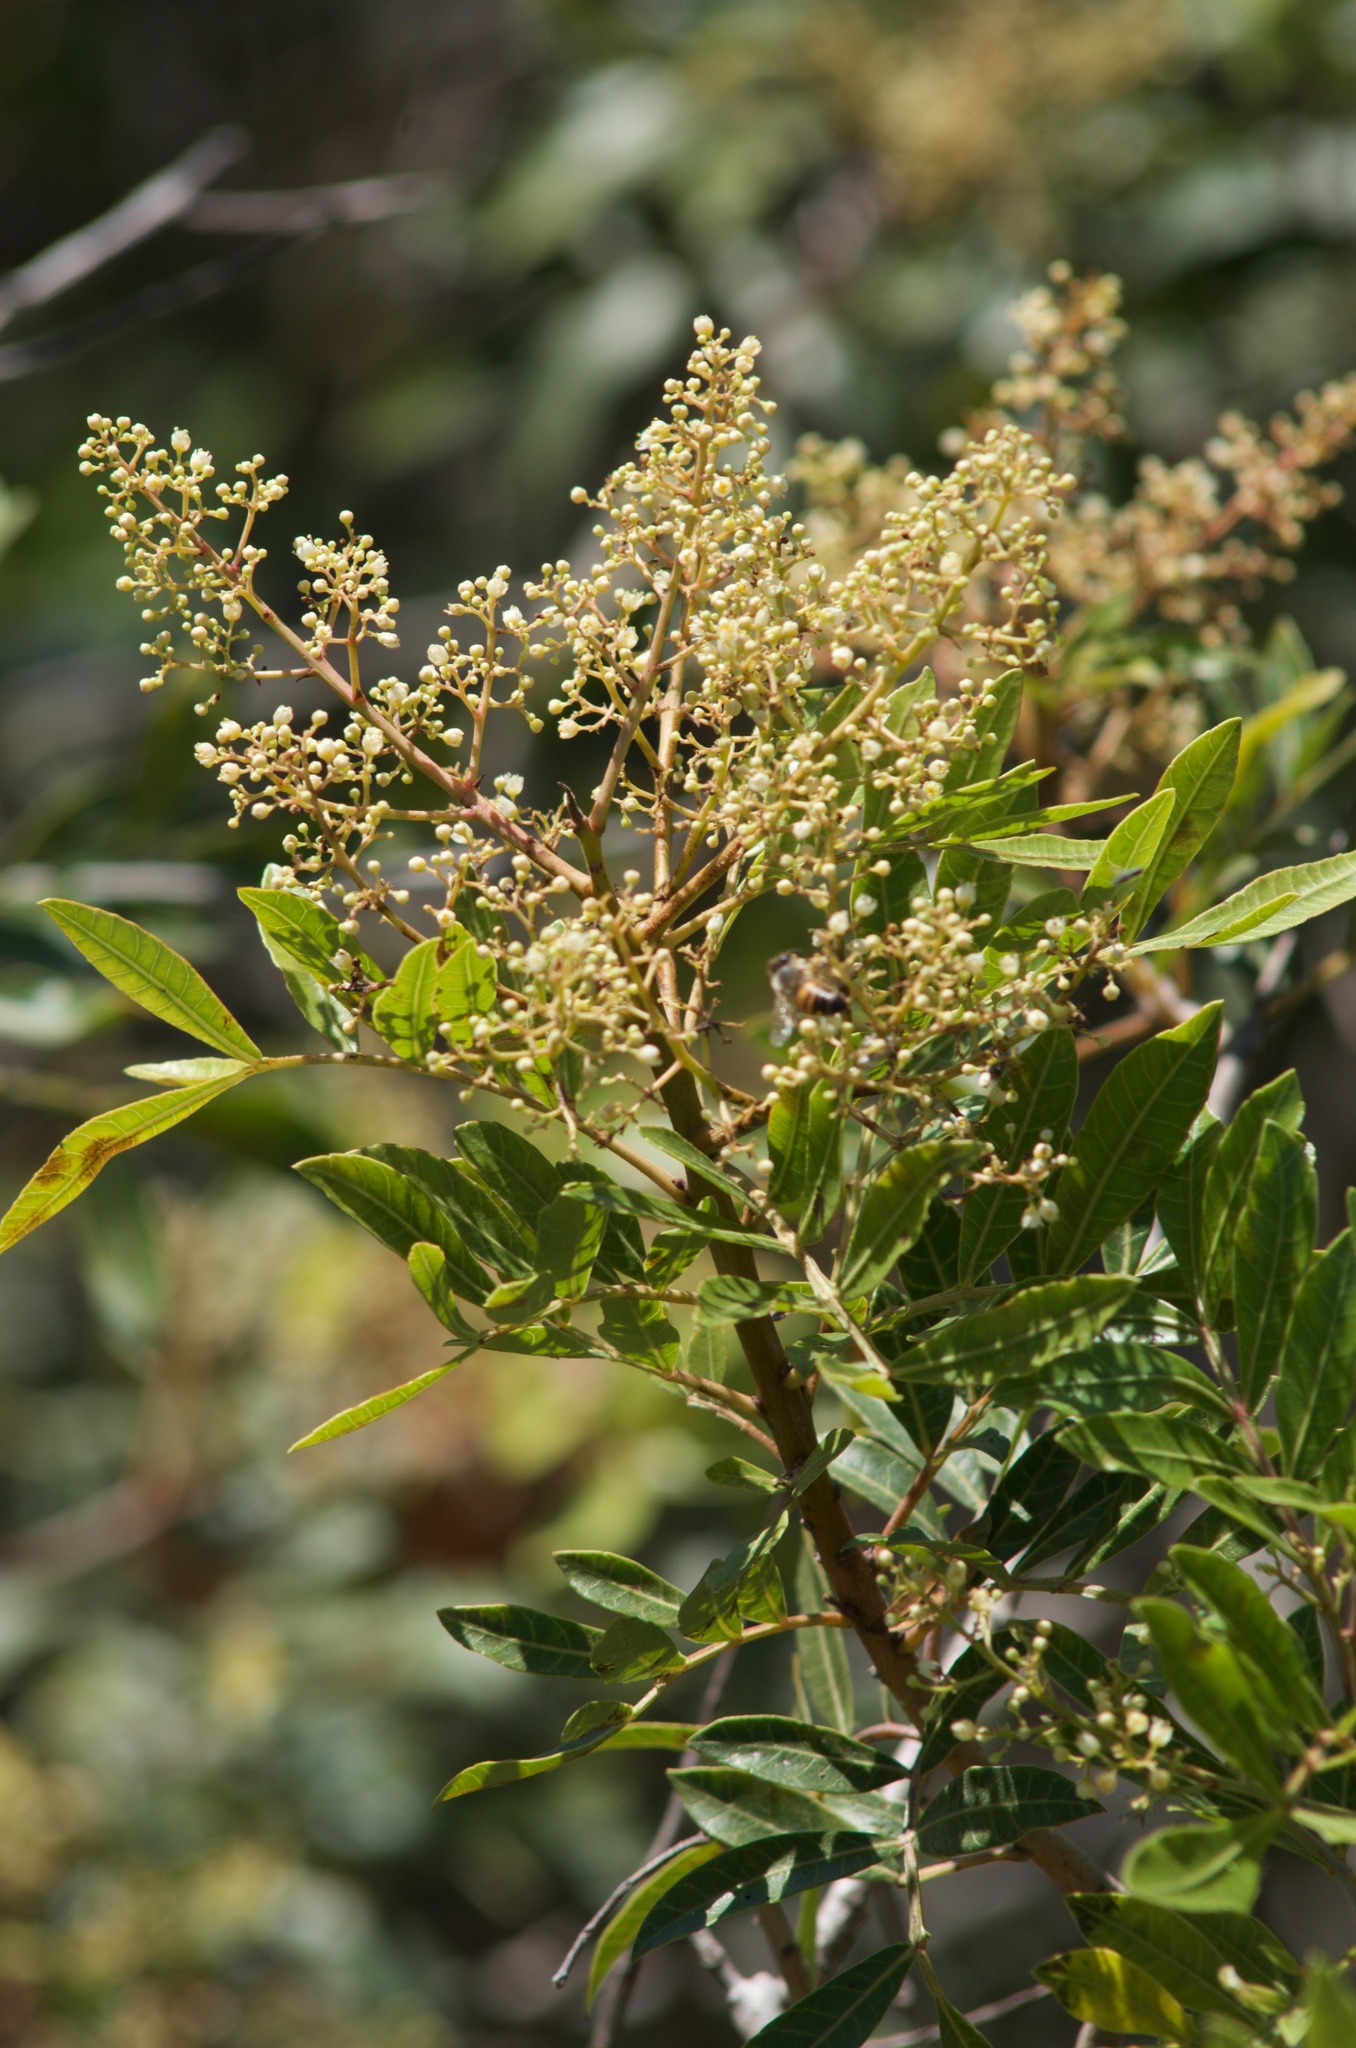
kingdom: Plantae
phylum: Tracheophyta
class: Magnoliopsida
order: Sapindales
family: Anacardiaceae
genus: Schinus
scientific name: Schinus terebinthifolia
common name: Brazilian peppertree
